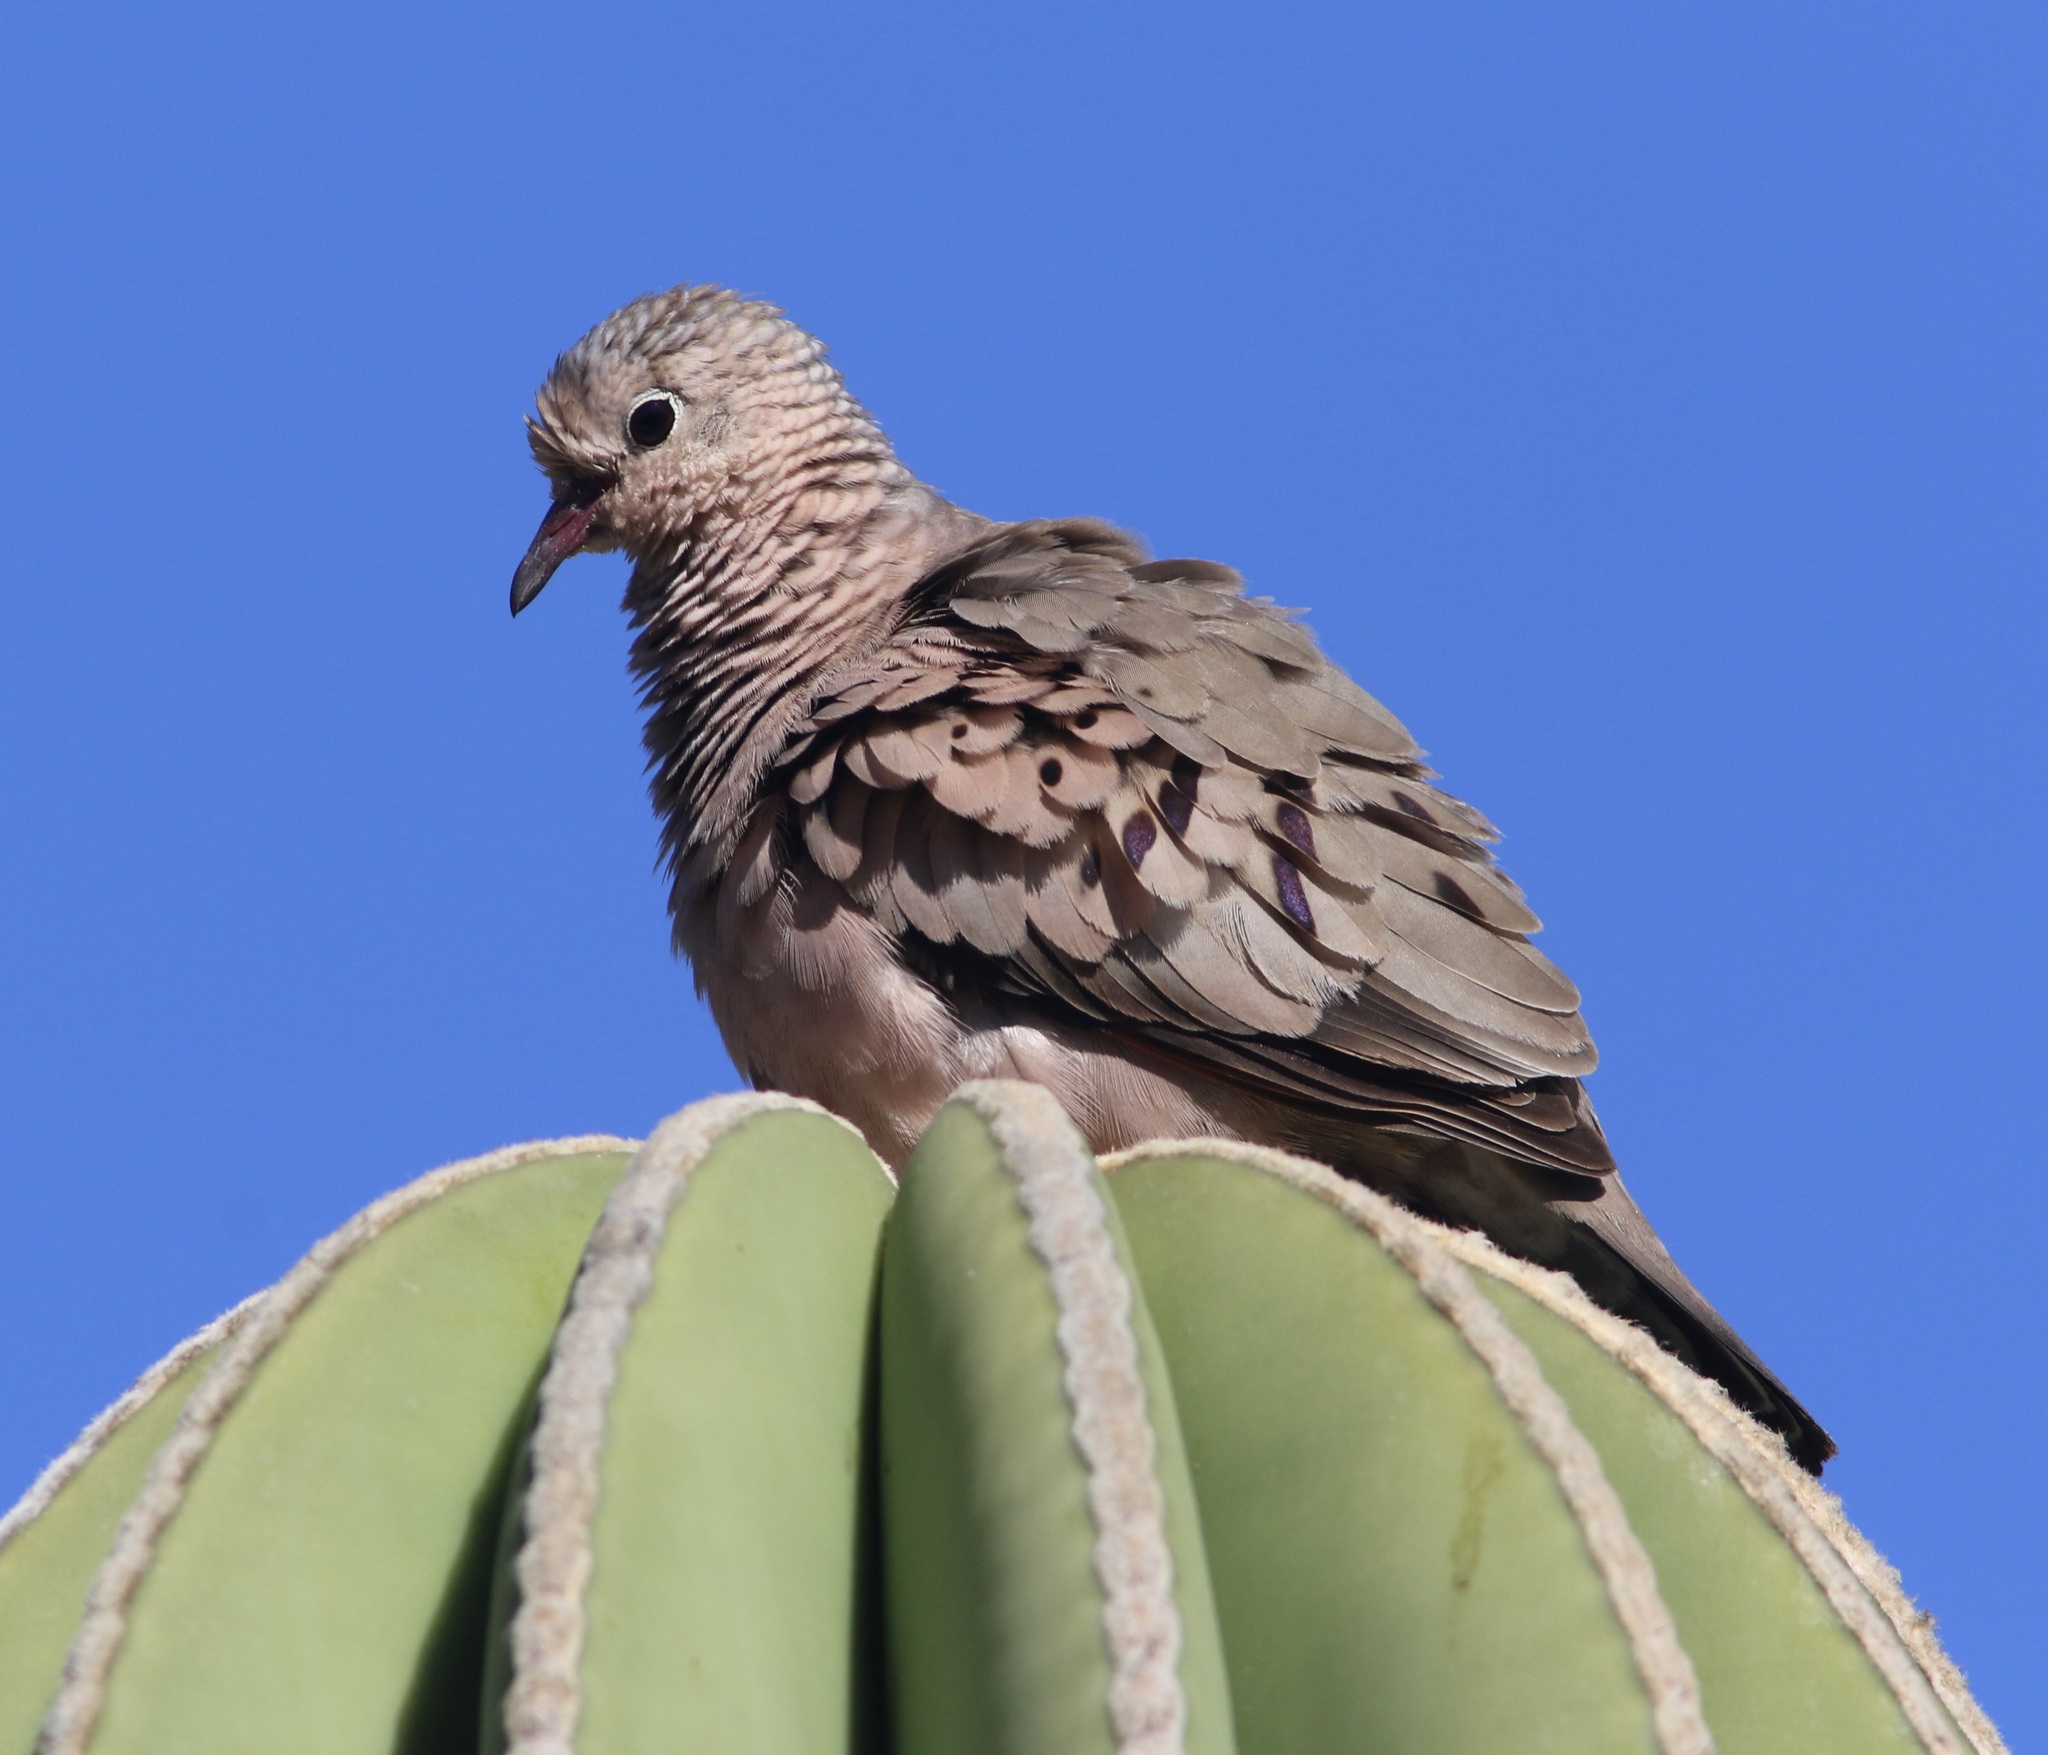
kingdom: Animalia
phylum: Chordata
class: Aves
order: Columbiformes
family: Columbidae
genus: Columbina
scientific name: Columbina passerina
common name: Common ground-dove
